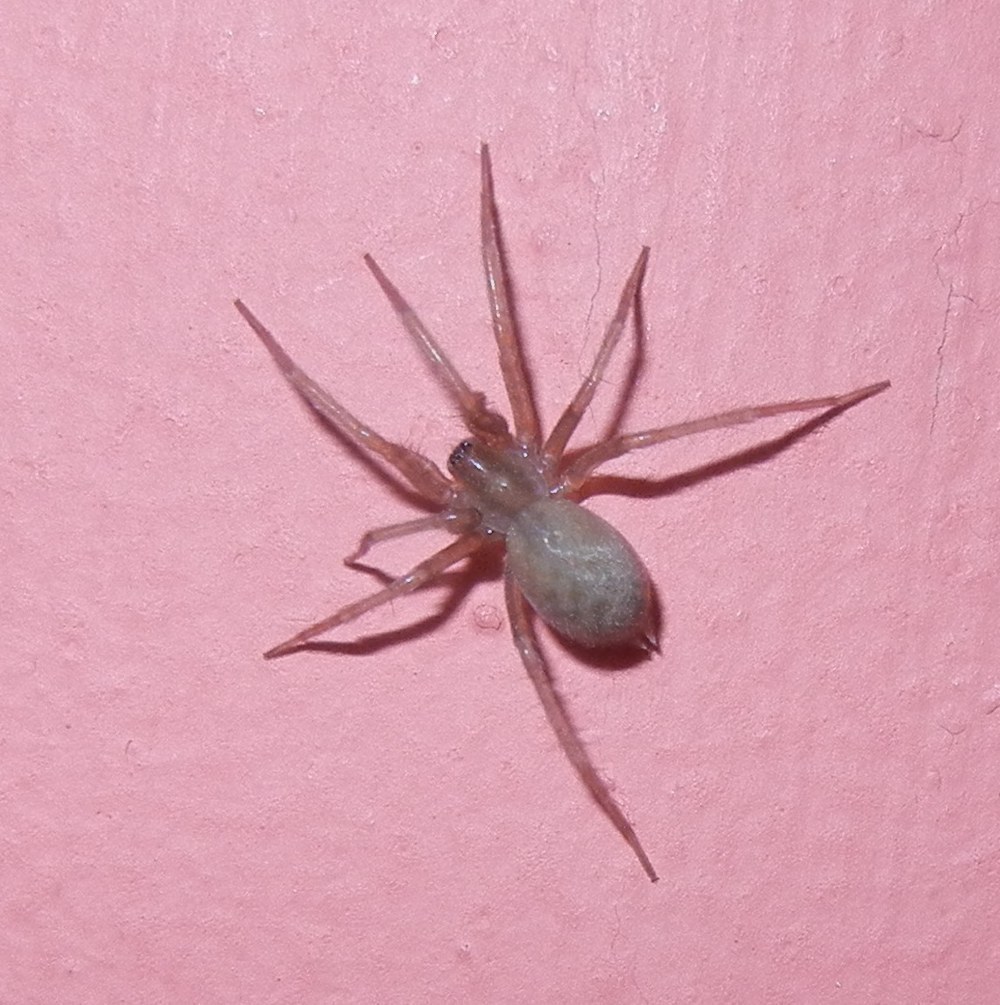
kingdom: Animalia
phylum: Arthropoda
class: Arachnida
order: Araneae
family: Agelenidae
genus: Tegenaria
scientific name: Tegenaria domestica
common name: Barn funnel weaver
